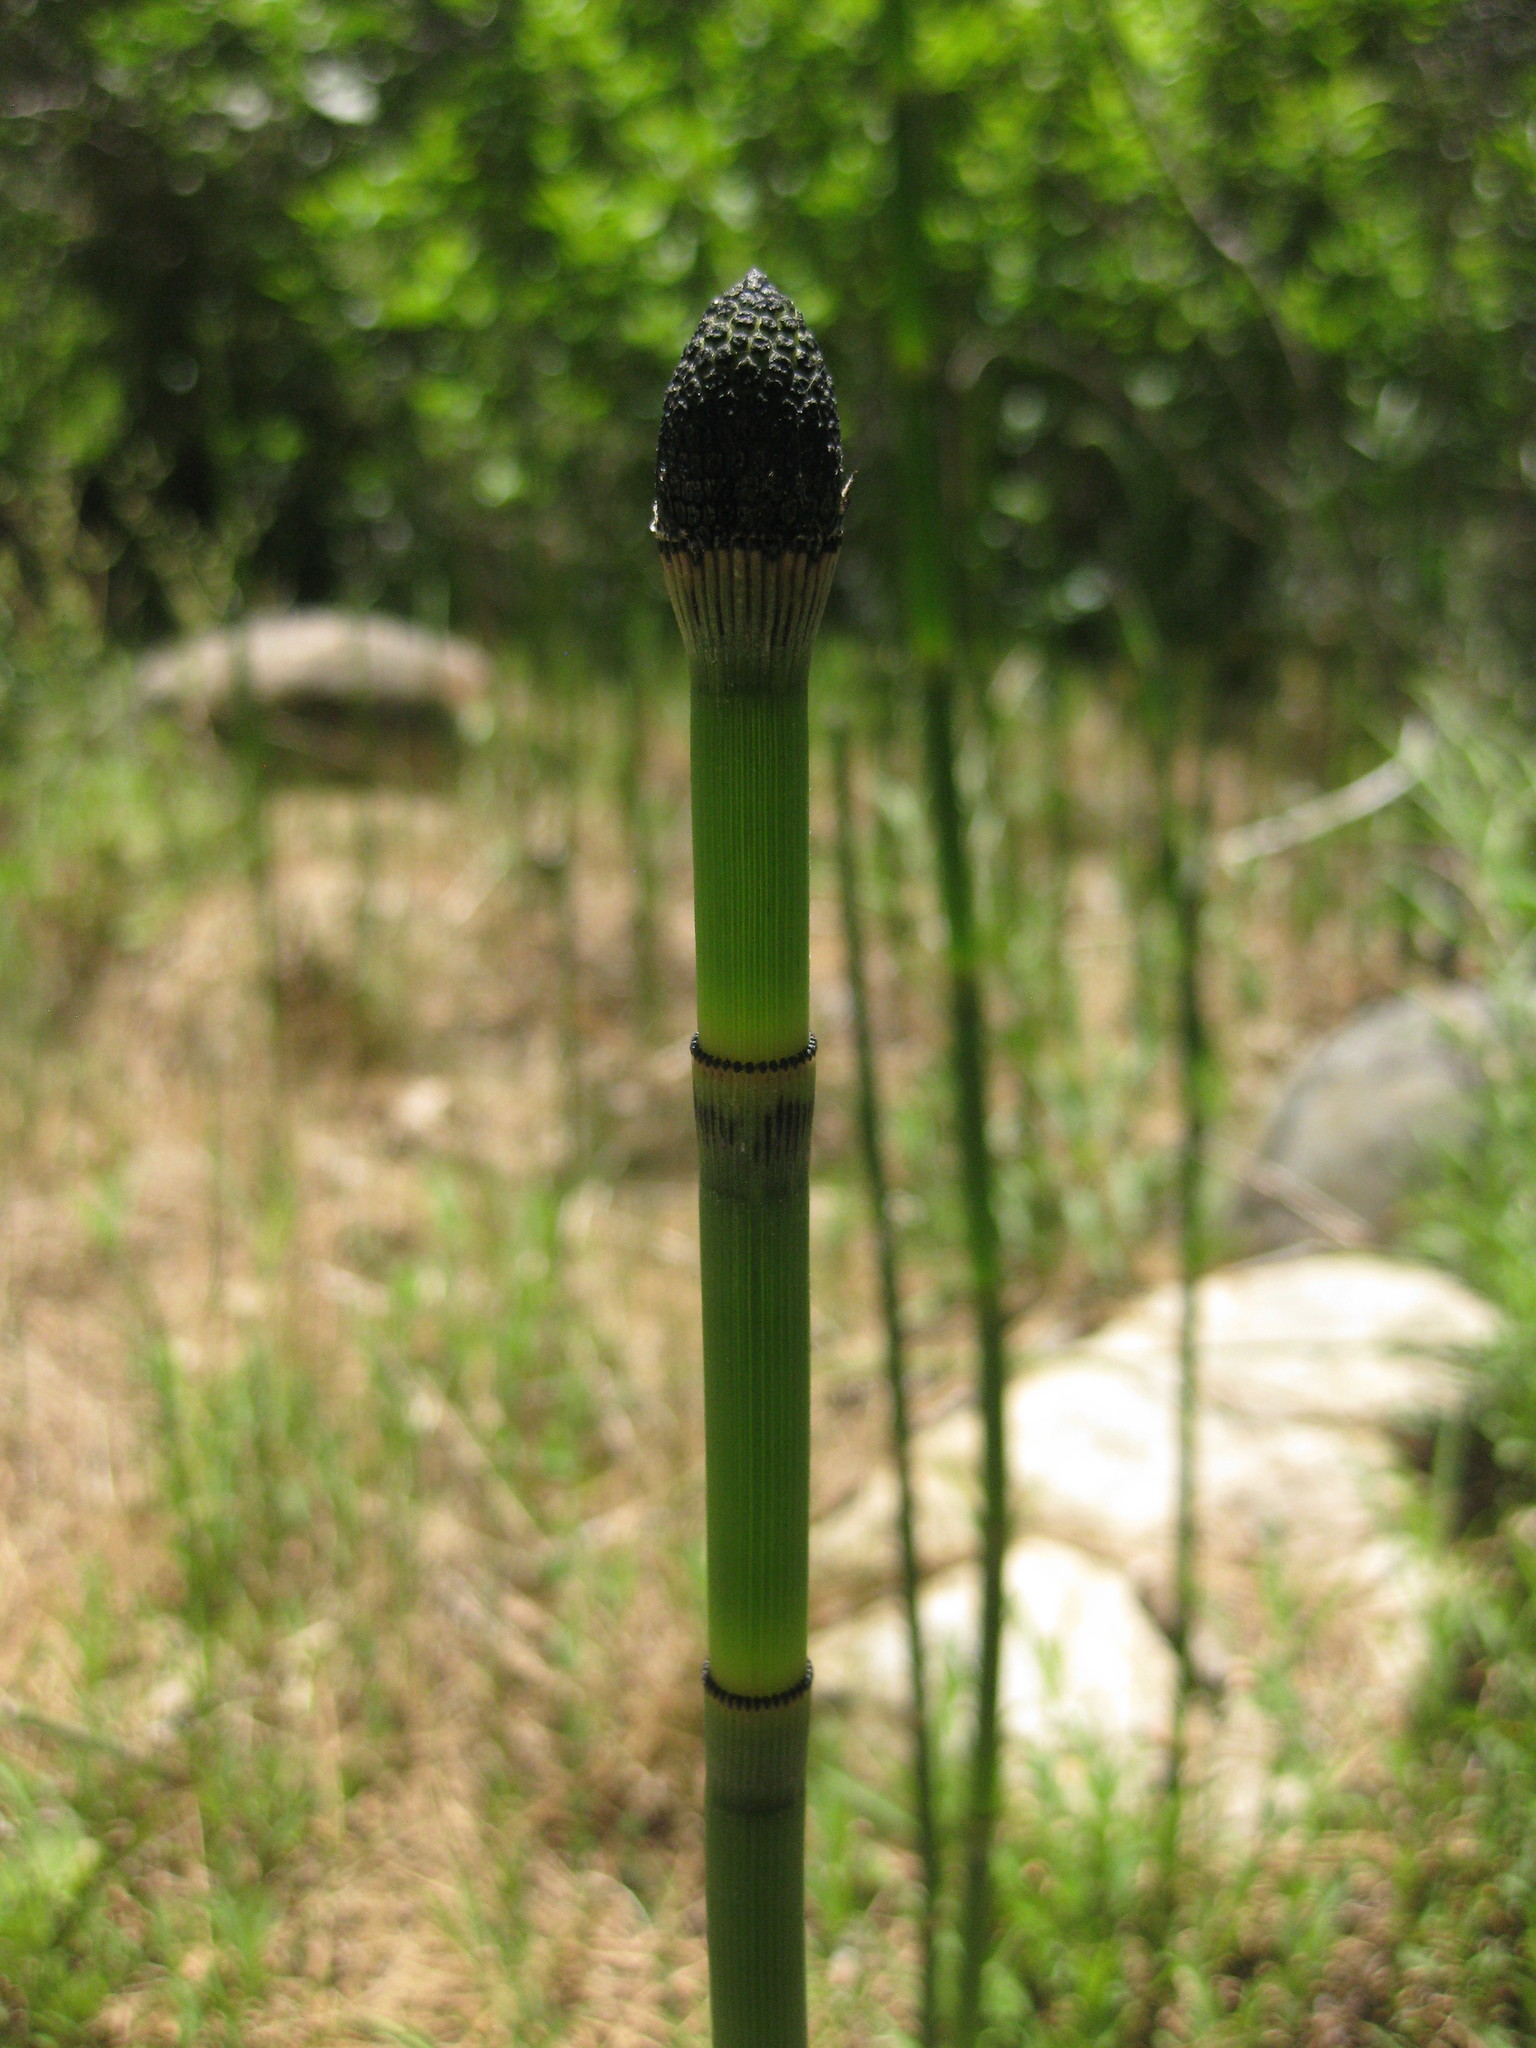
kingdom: Plantae
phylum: Tracheophyta
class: Polypodiopsida
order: Equisetales
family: Equisetaceae
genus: Equisetum
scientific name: Equisetum praealtum
